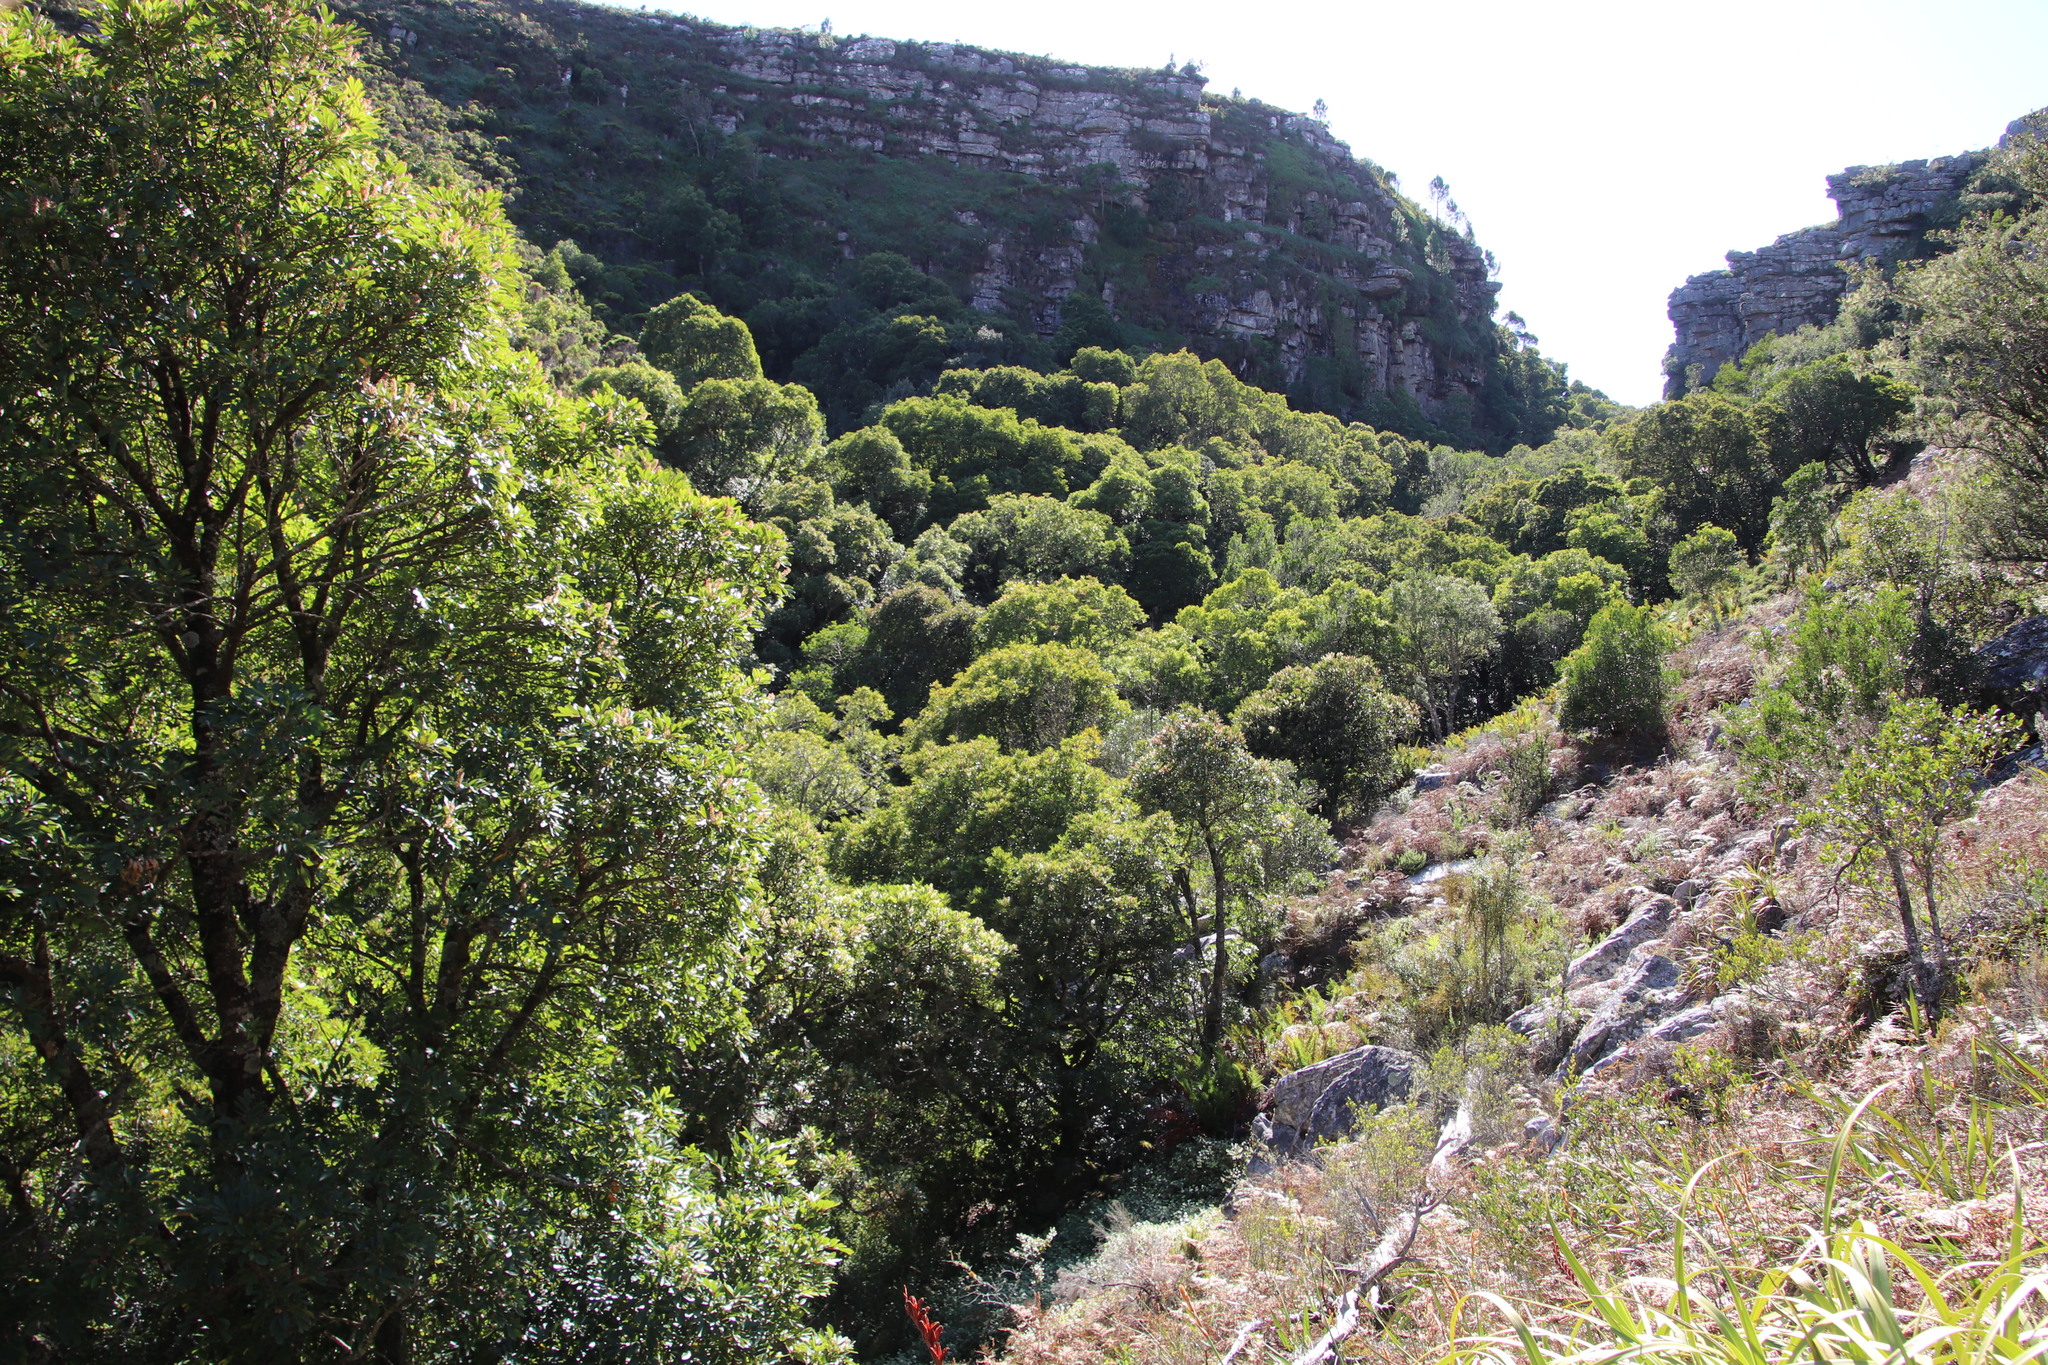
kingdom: Plantae
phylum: Tracheophyta
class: Magnoliopsida
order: Fabales
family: Fabaceae
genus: Acacia
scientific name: Acacia melanoxylon
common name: Blackwood
